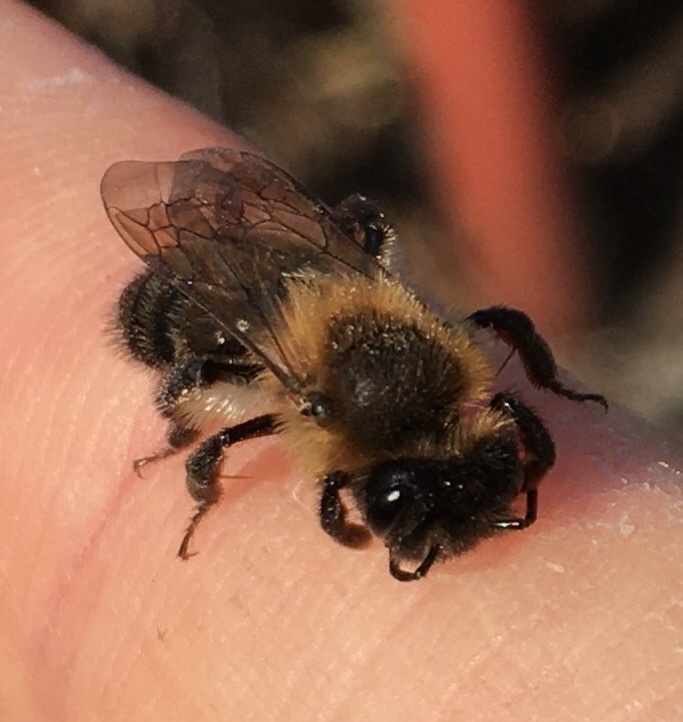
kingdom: Animalia
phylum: Arthropoda
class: Insecta
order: Hymenoptera
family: Andrenidae
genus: Andrena
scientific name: Andrena carantonica
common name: Chocolate mining bee
